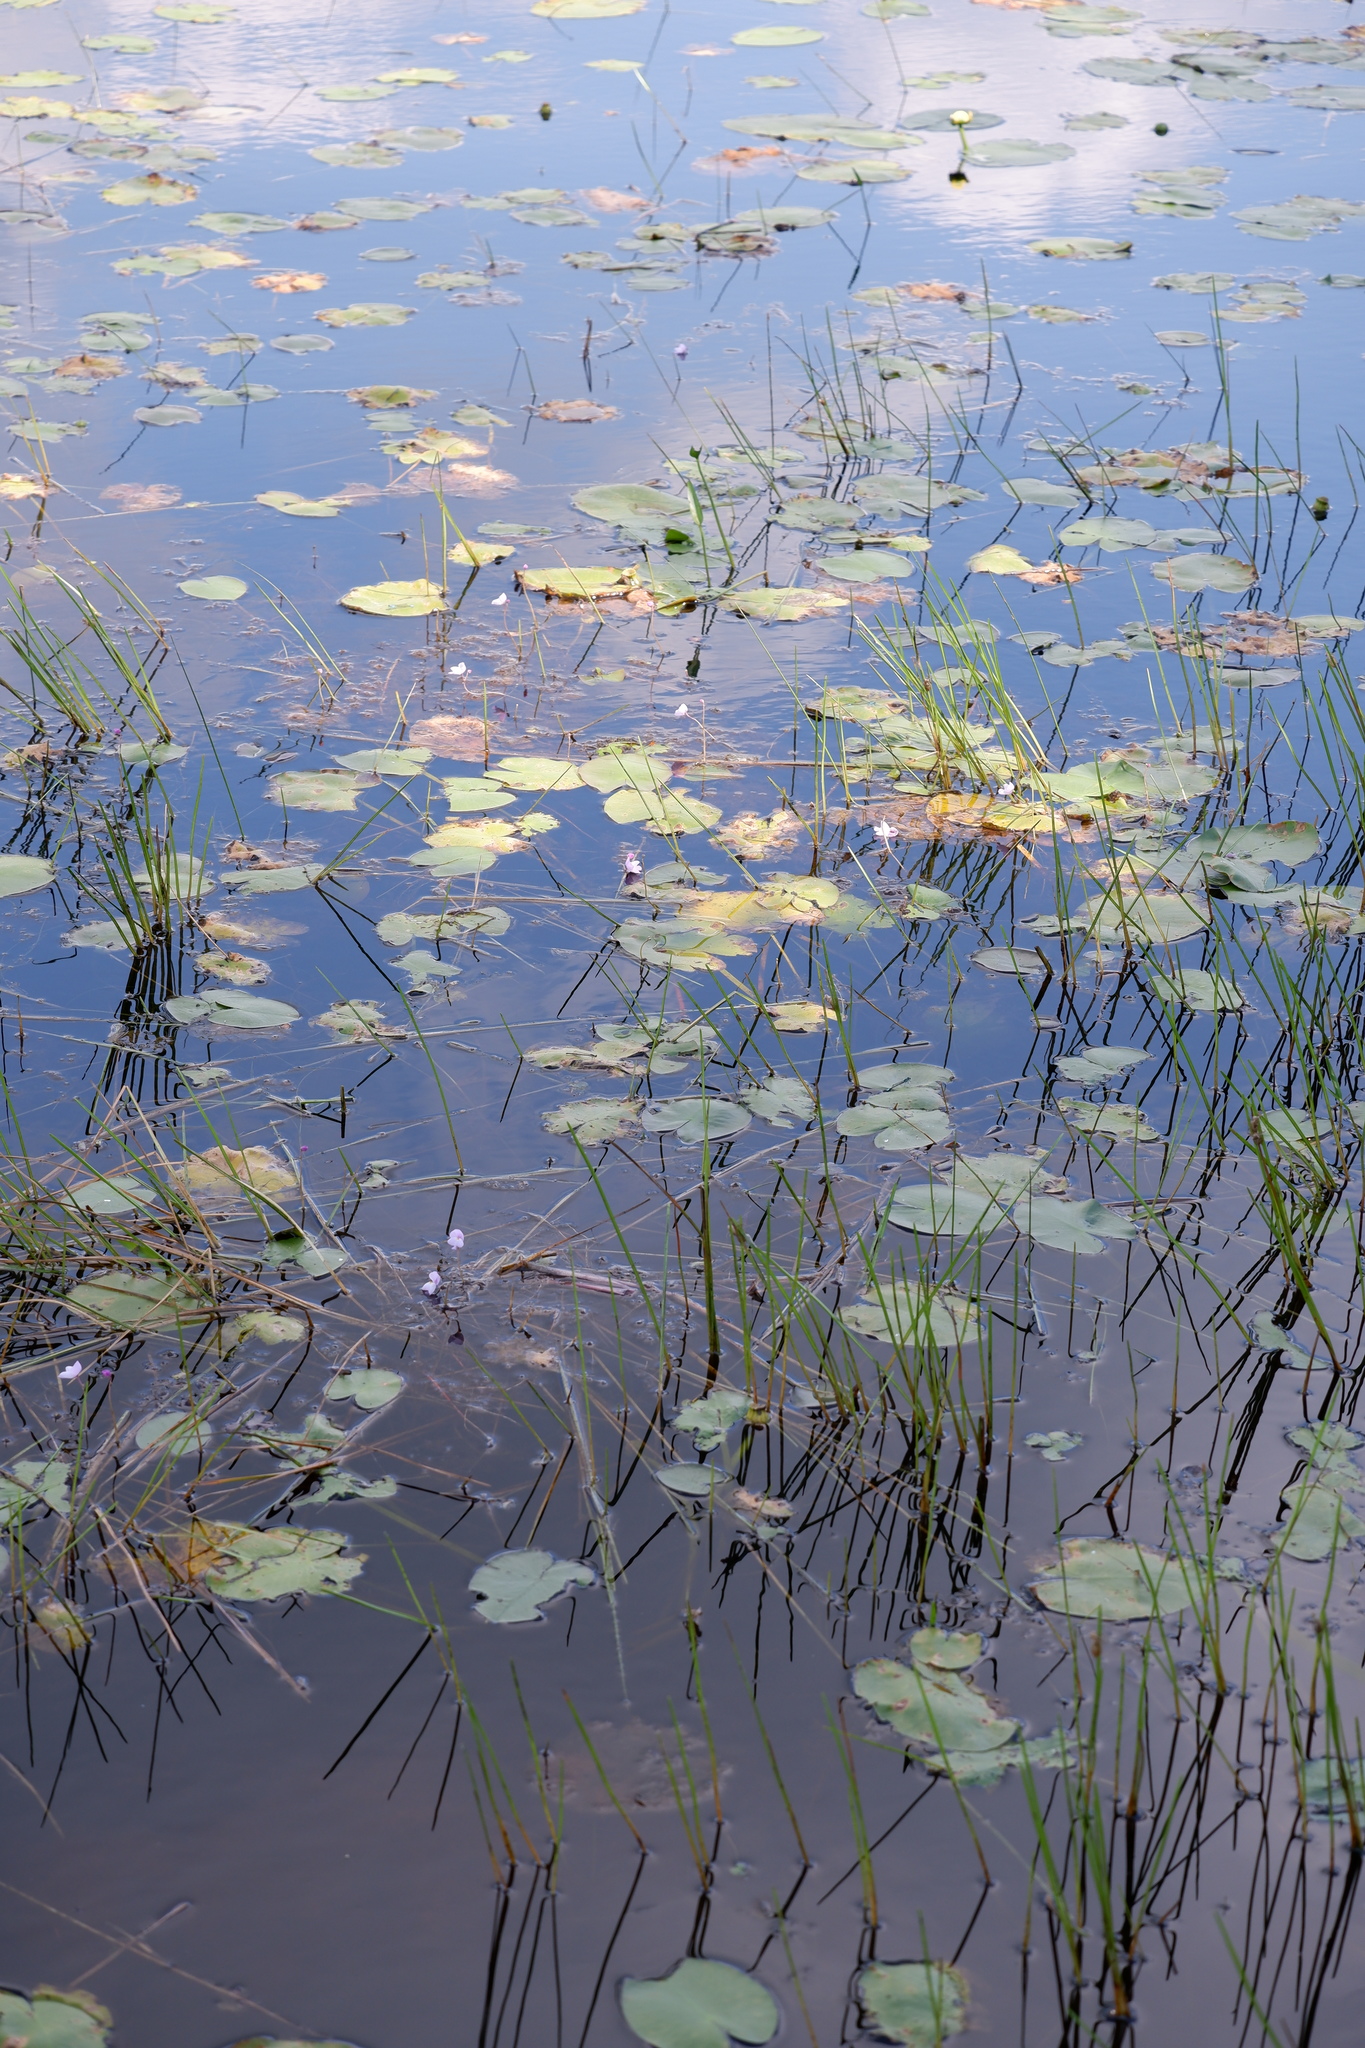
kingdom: Plantae
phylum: Tracheophyta
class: Magnoliopsida
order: Lamiales
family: Lentibulariaceae
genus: Utricularia
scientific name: Utricularia purpurea
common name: Eastern purple bladderwort
